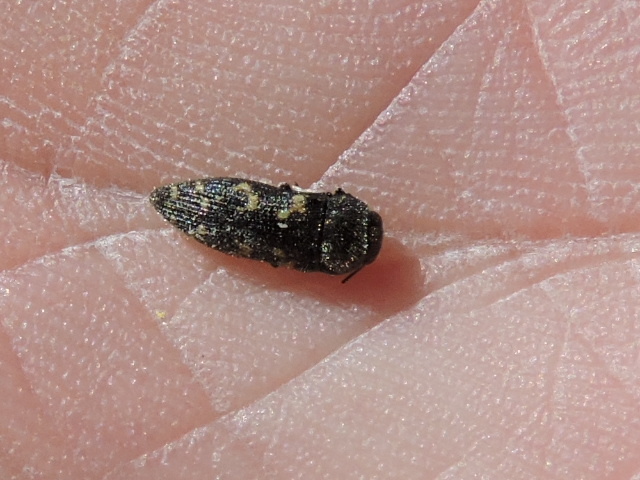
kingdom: Animalia
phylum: Arthropoda
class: Insecta
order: Coleoptera
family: Buprestidae
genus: Acmaeodera
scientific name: Acmaeodera neglecta
